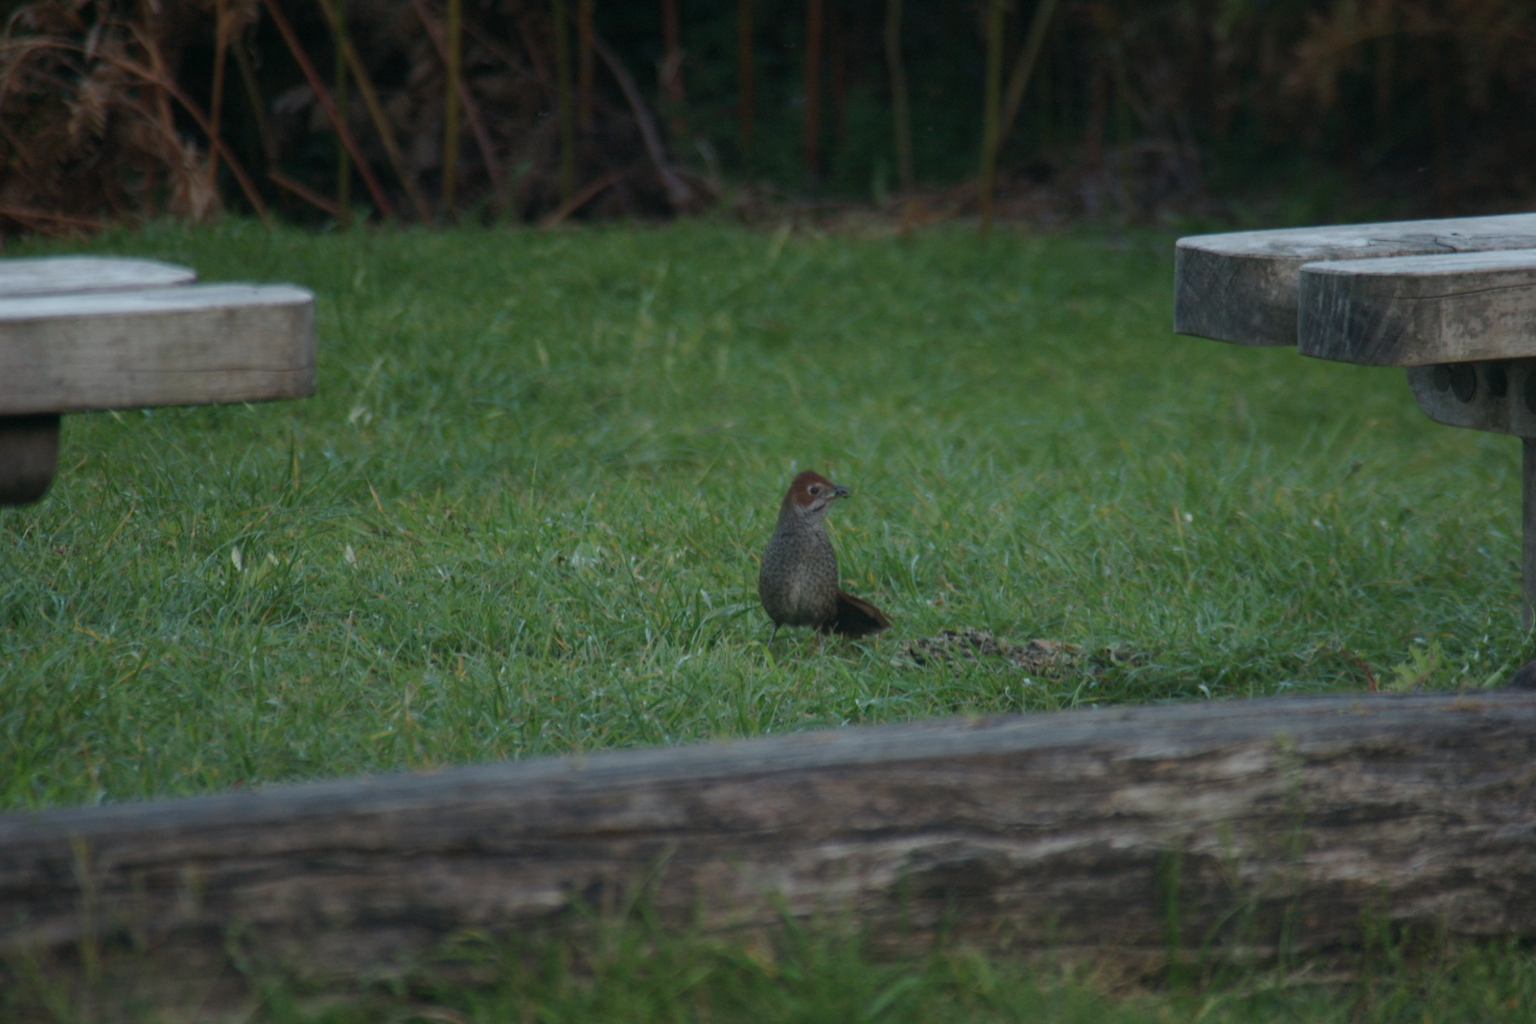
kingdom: Animalia
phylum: Chordata
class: Aves
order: Passeriformes
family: Dasyornithidae
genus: Dasyornis
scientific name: Dasyornis broadbenti
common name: Rufous bristlebird
